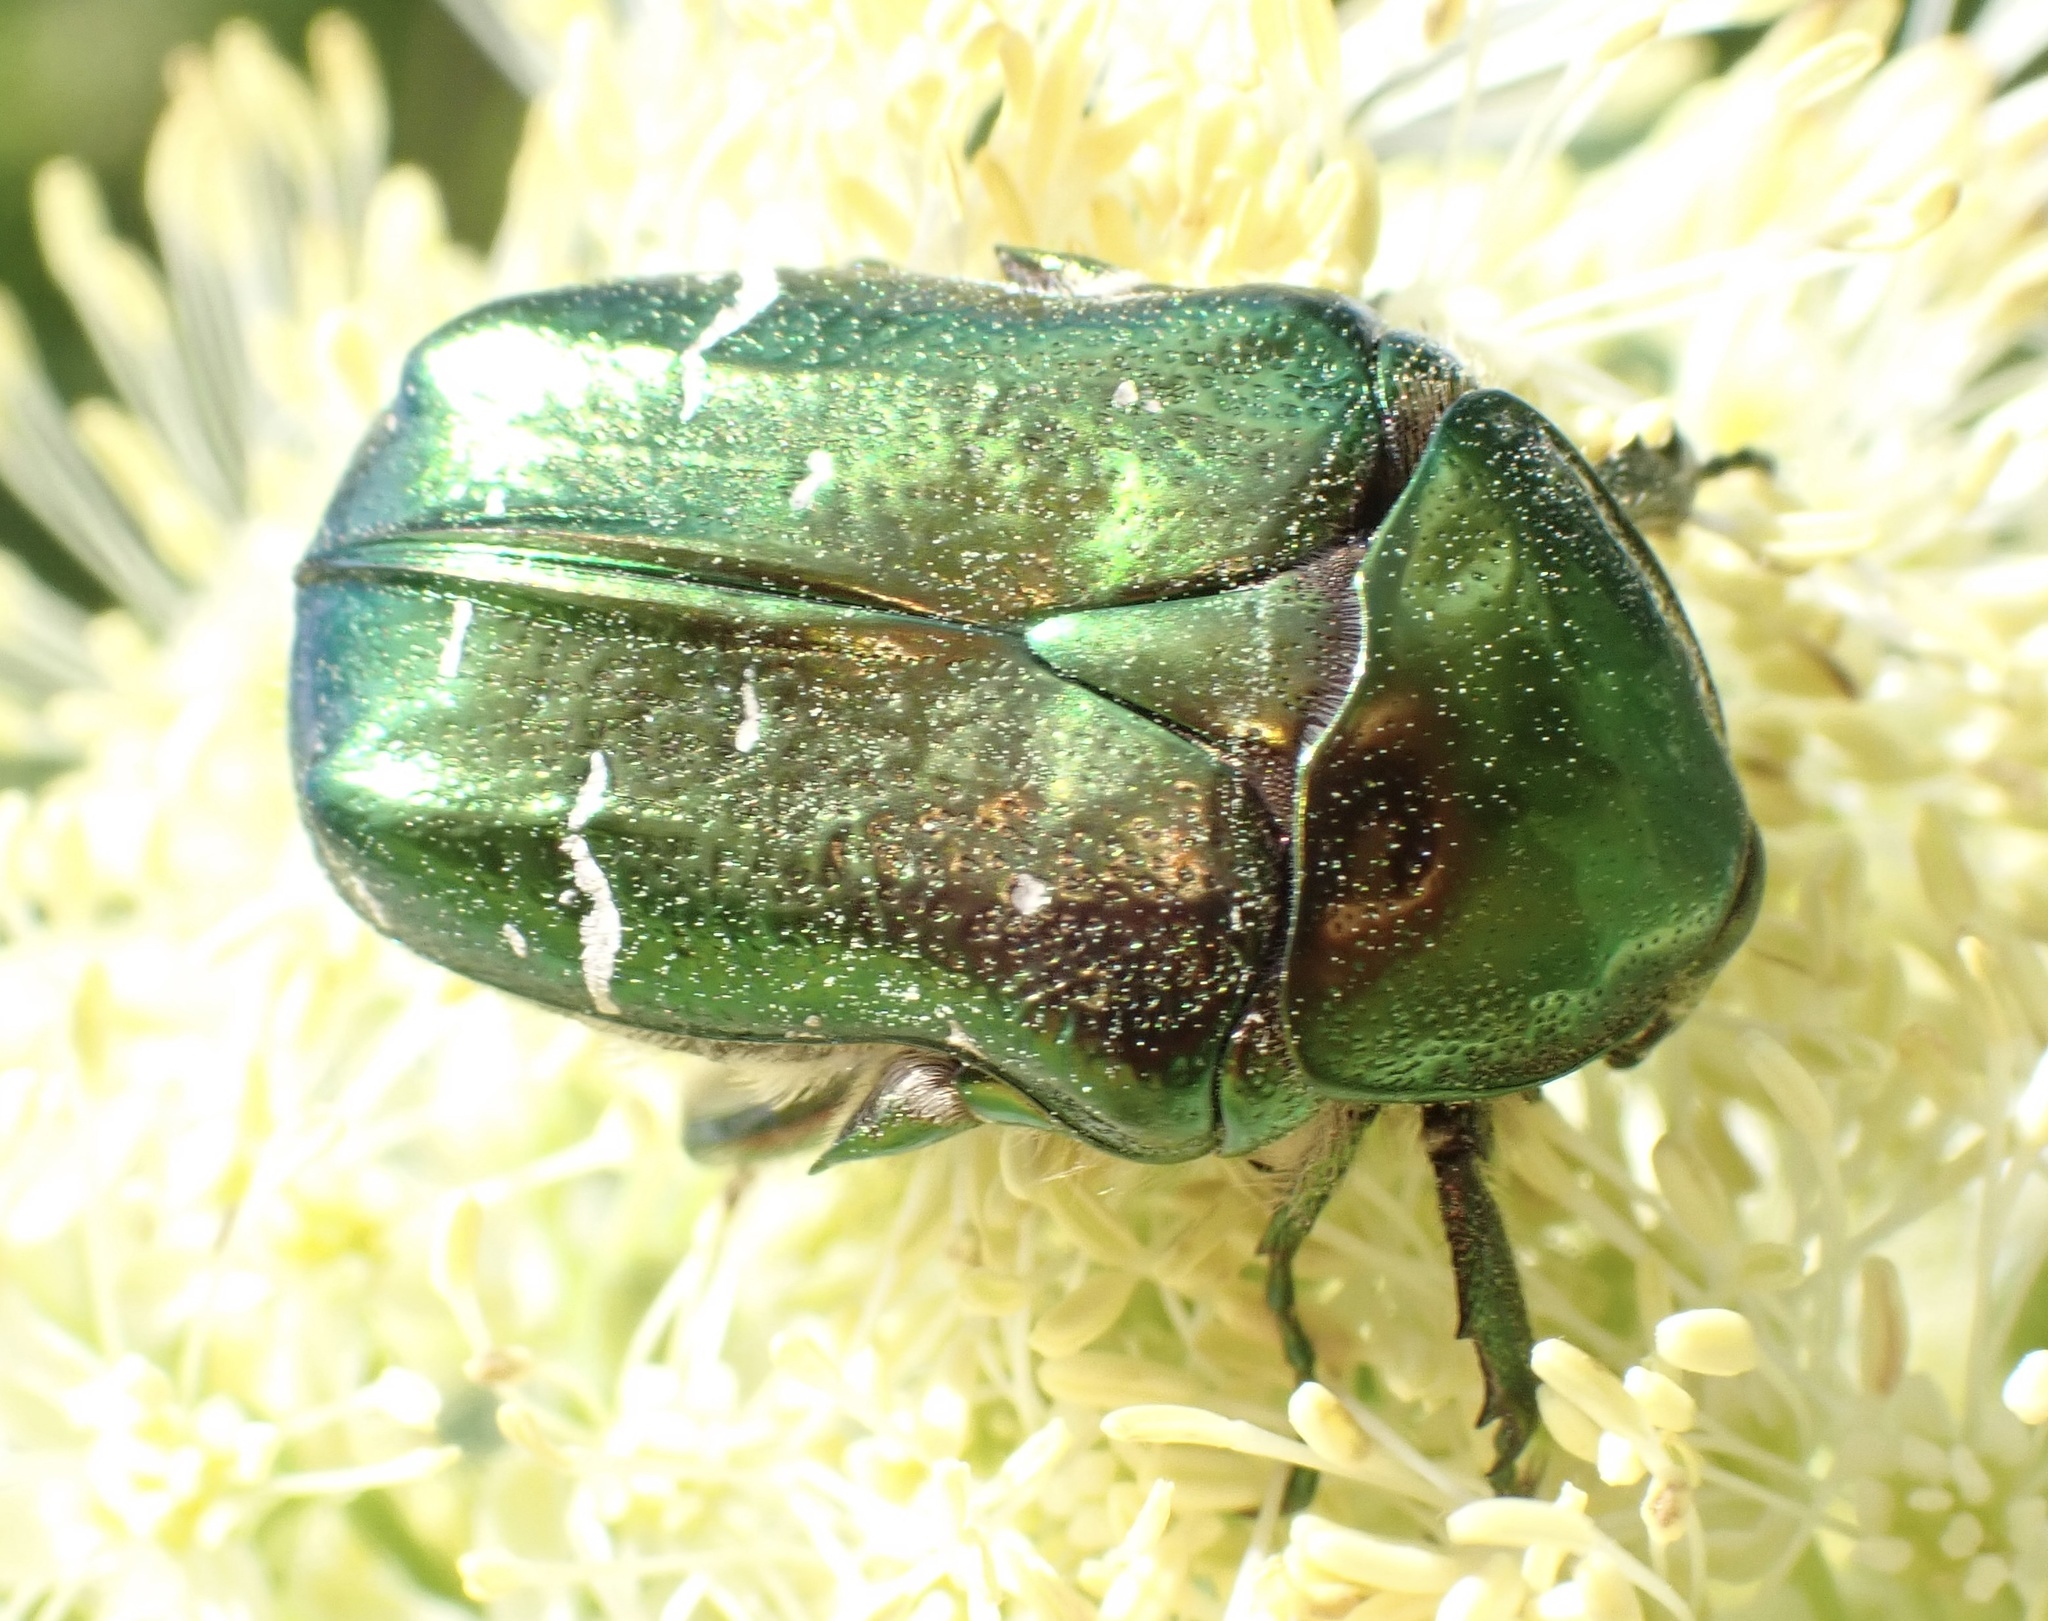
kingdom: Animalia
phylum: Arthropoda
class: Insecta
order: Coleoptera
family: Scarabaeidae
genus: Cetonia
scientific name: Cetonia aurata
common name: Rose chafer
